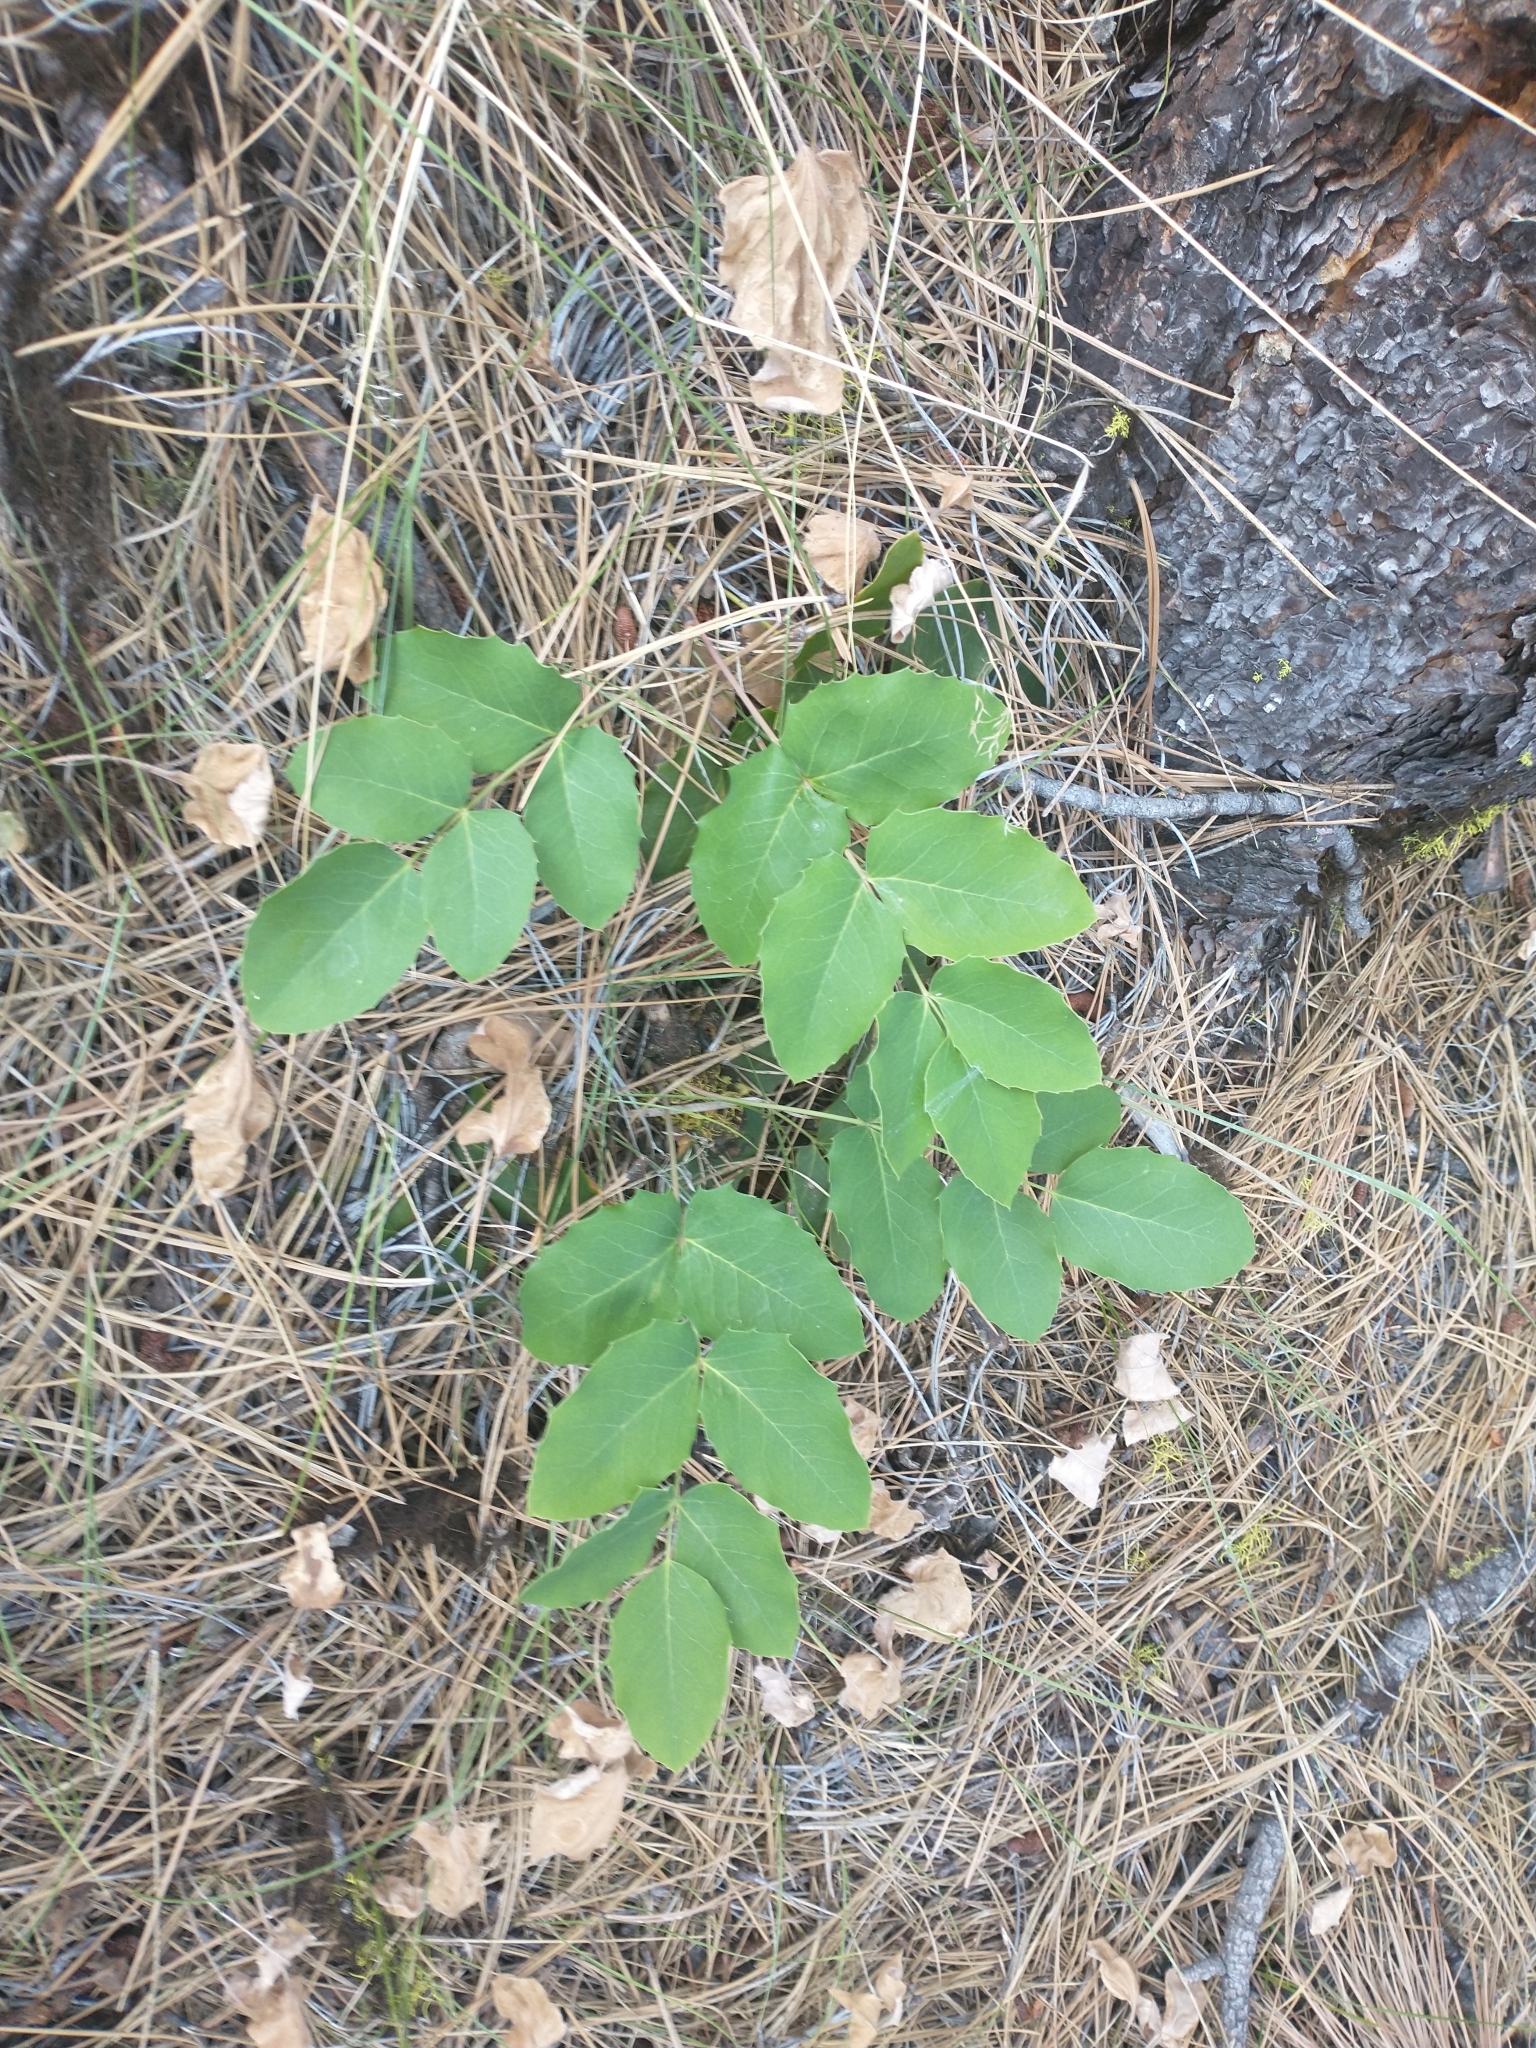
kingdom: Plantae
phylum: Tracheophyta
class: Magnoliopsida
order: Ranunculales
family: Berberidaceae
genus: Mahonia
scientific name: Mahonia repens
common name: Creeping oregon-grape
